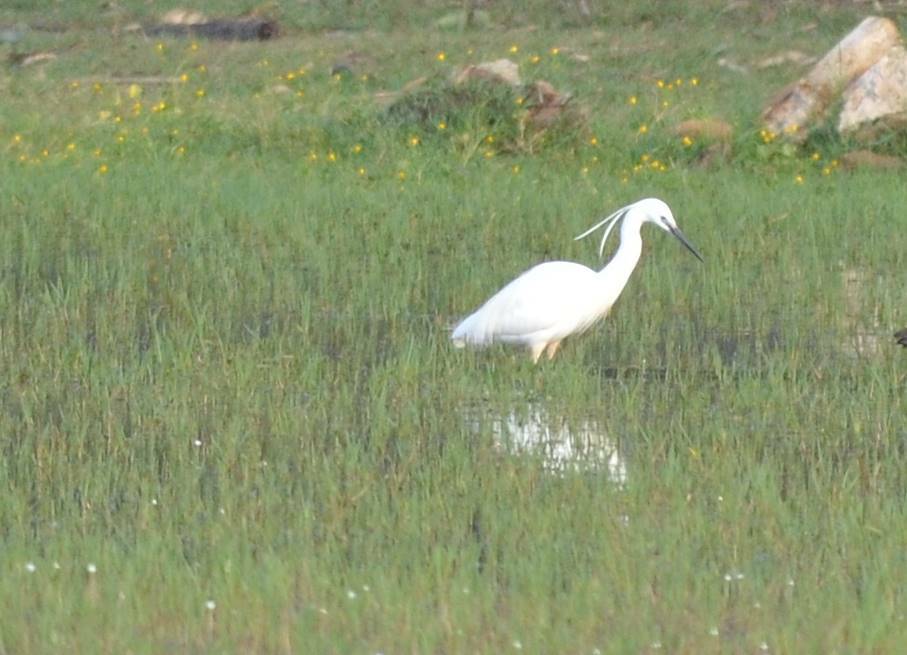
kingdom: Animalia
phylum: Chordata
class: Aves
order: Pelecaniformes
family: Ardeidae
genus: Egretta
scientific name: Egretta garzetta
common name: Little egret
